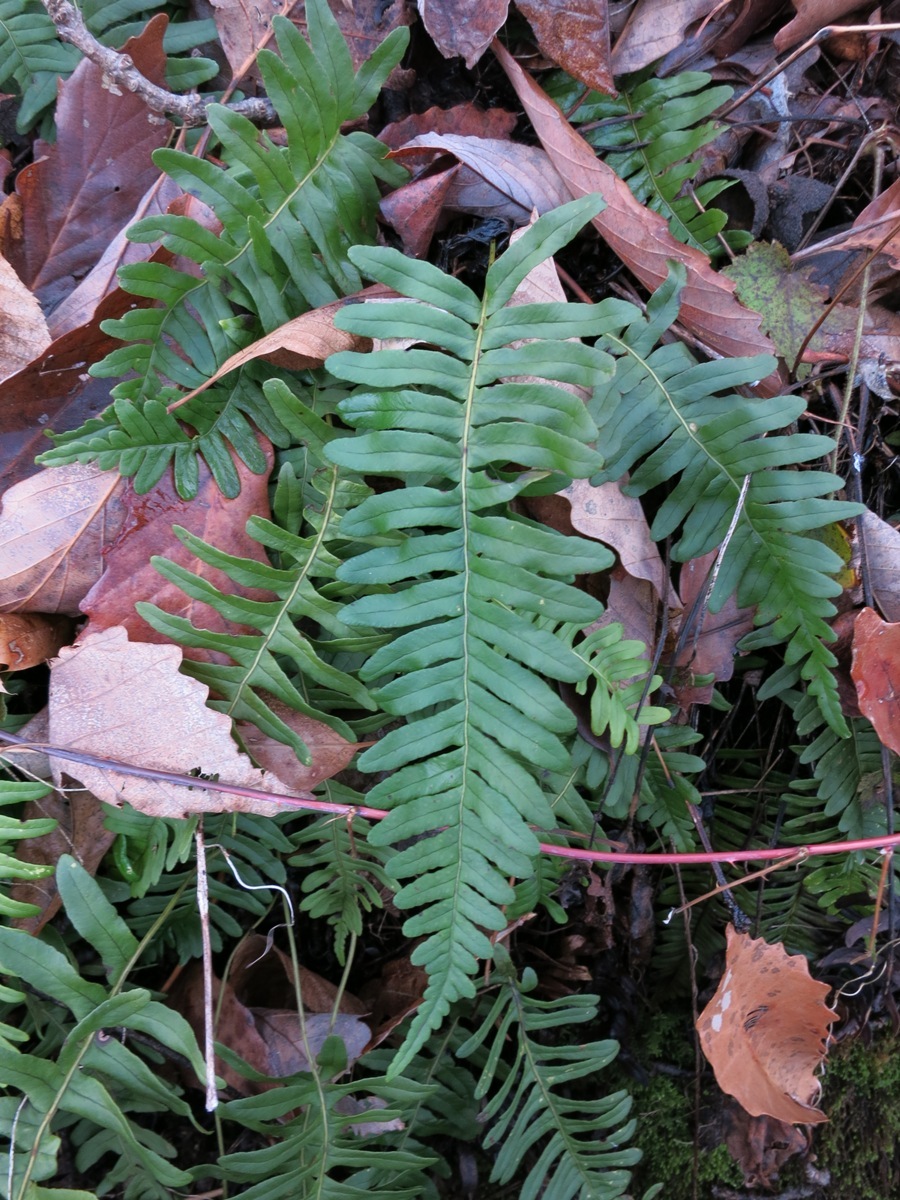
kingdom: Plantae
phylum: Tracheophyta
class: Polypodiopsida
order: Polypodiales
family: Polypodiaceae
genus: Polypodium
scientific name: Polypodium virginianum
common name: American wall fern
